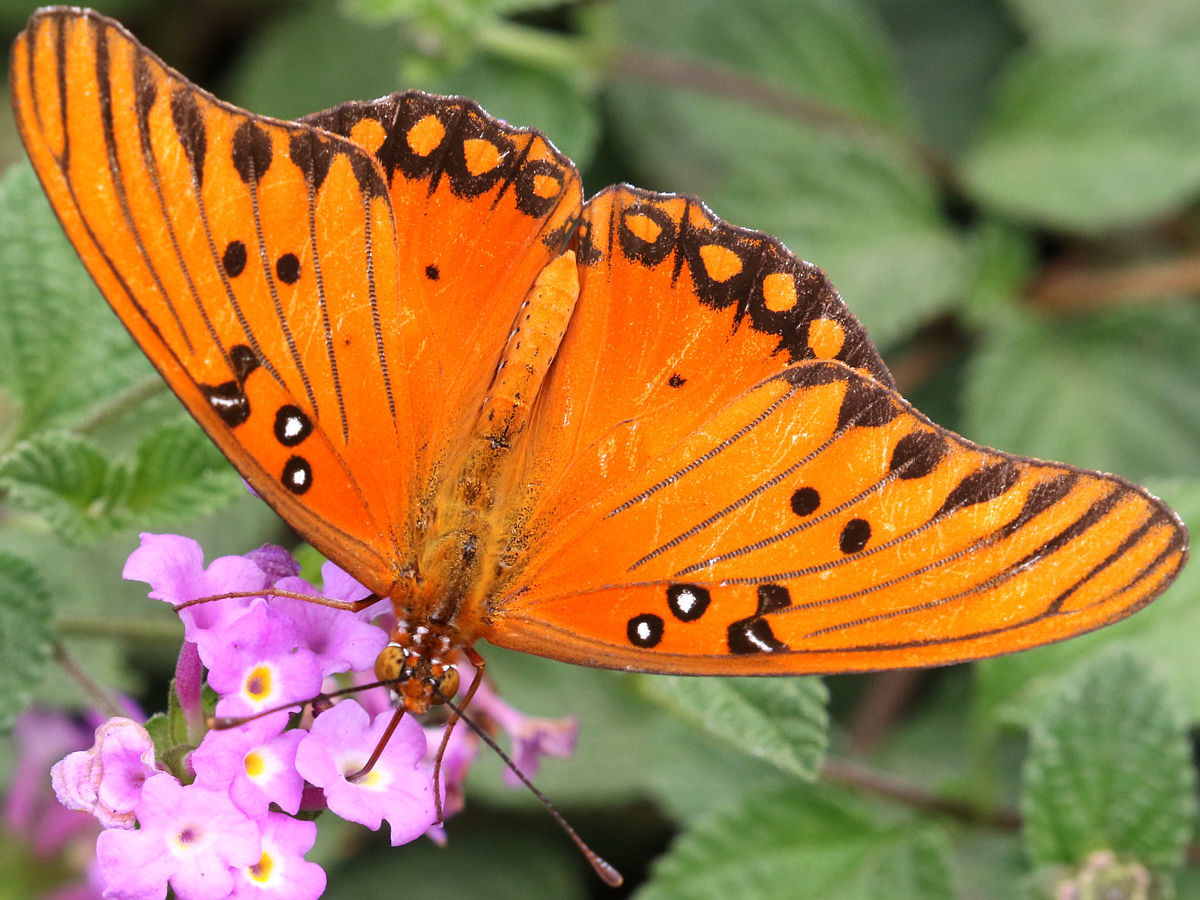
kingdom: Animalia
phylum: Arthropoda
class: Insecta
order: Lepidoptera
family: Nymphalidae
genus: Dione
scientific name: Dione vanillae
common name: Gulf fritillary
